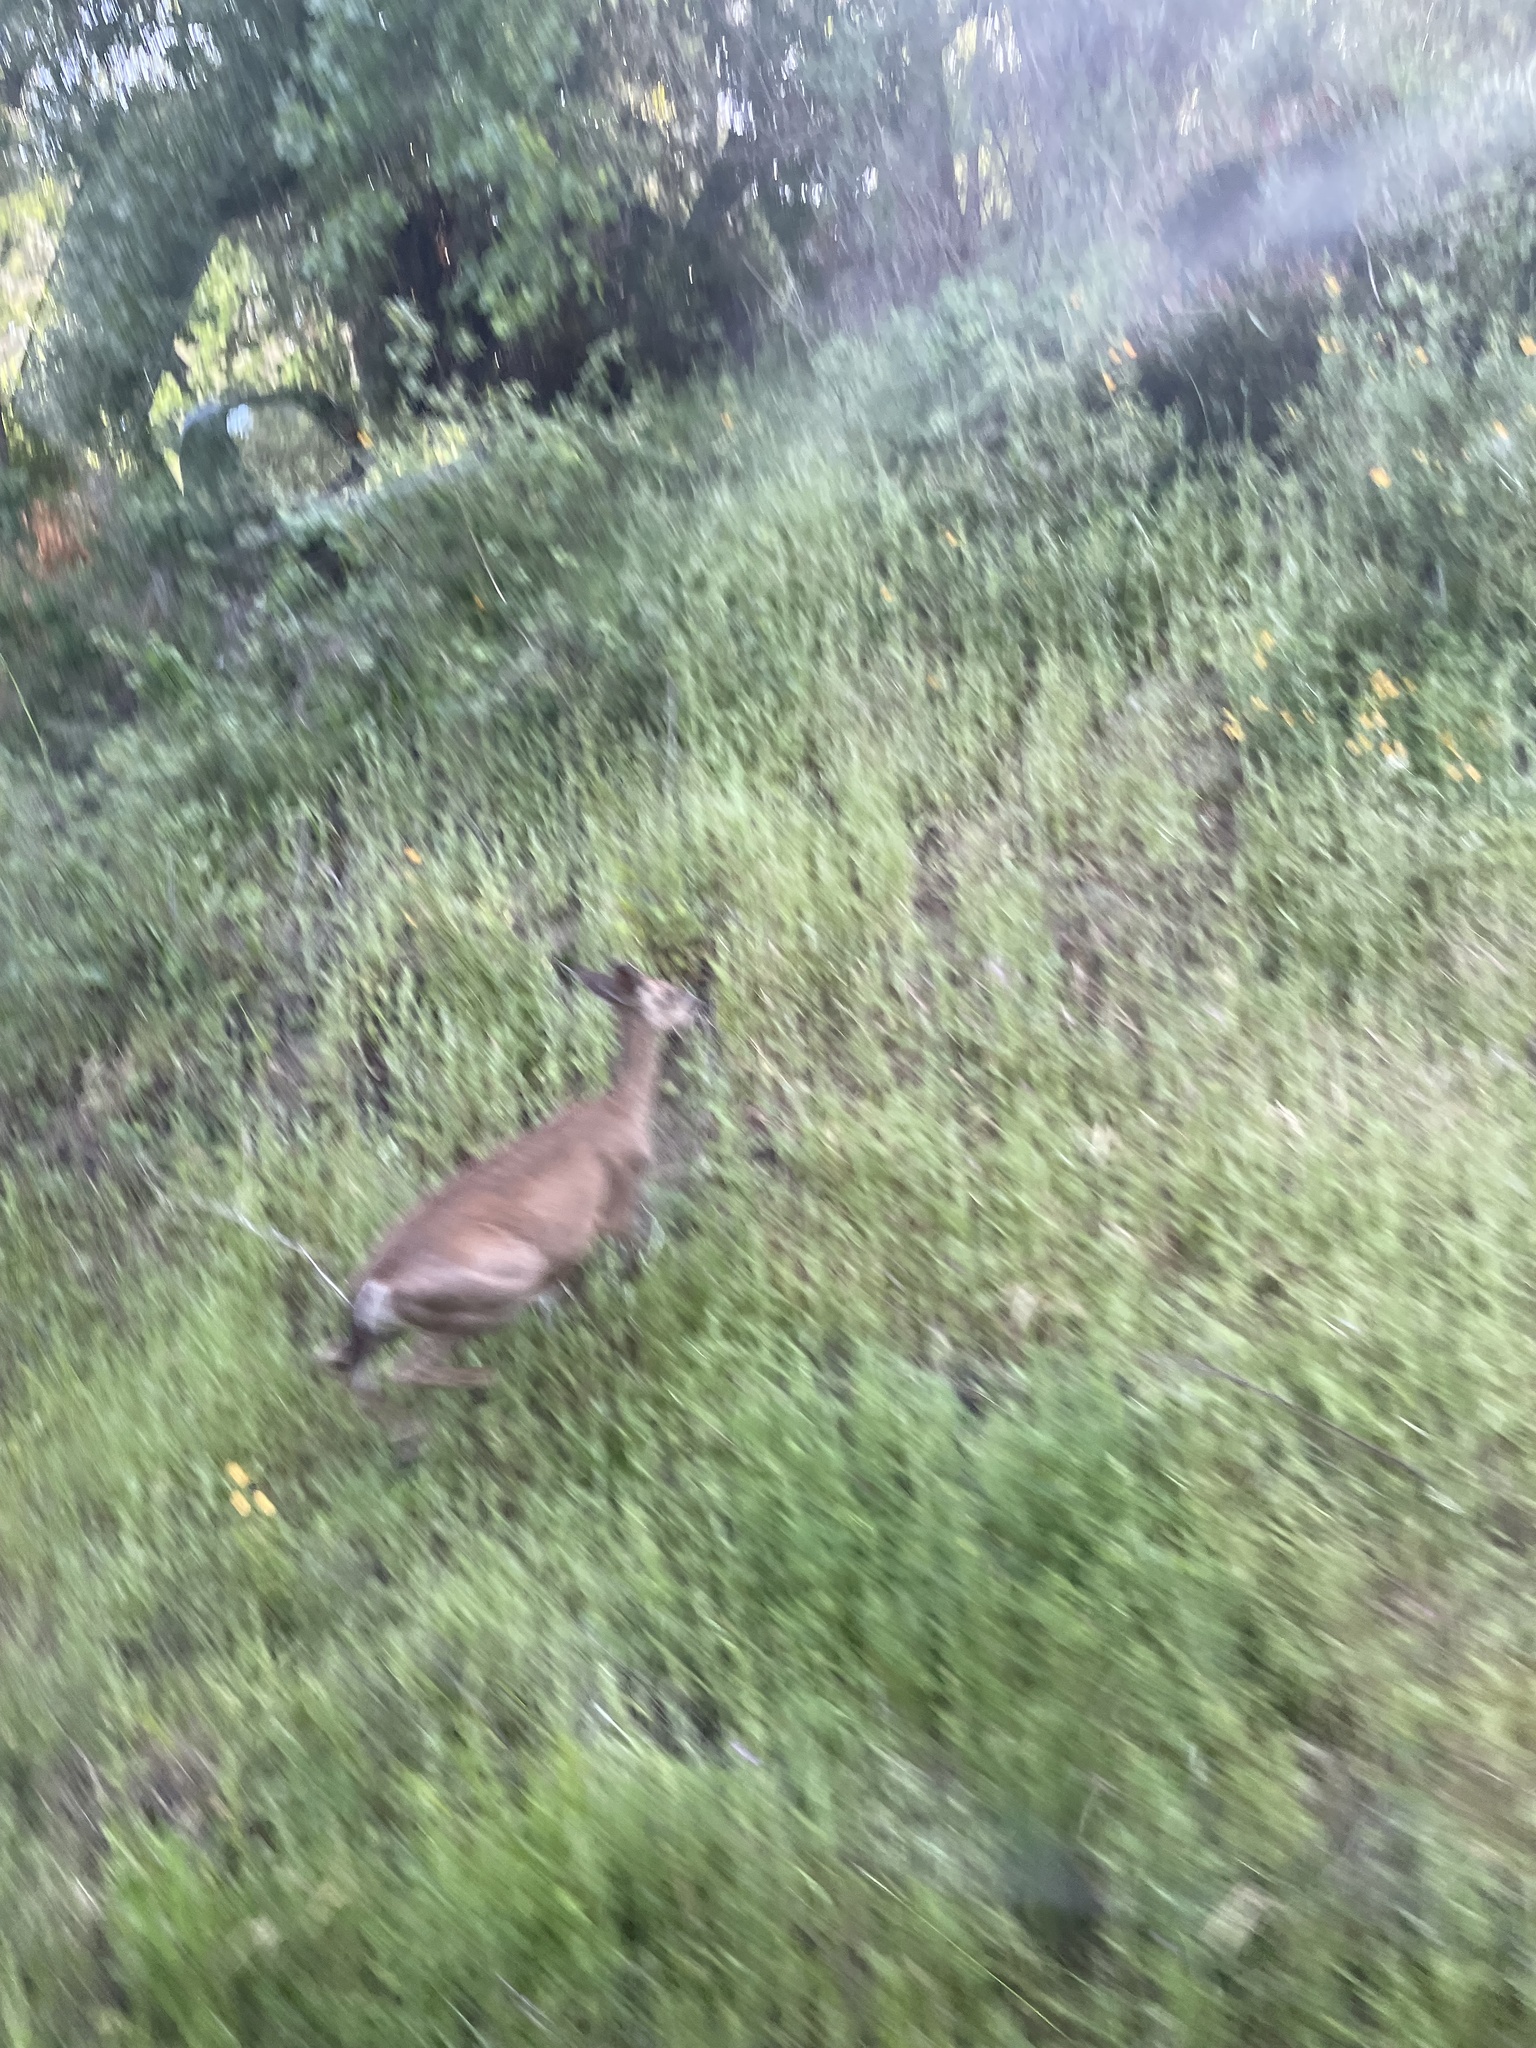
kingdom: Animalia
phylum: Chordata
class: Mammalia
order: Artiodactyla
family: Cervidae
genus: Odocoileus
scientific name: Odocoileus hemionus
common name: Mule deer
